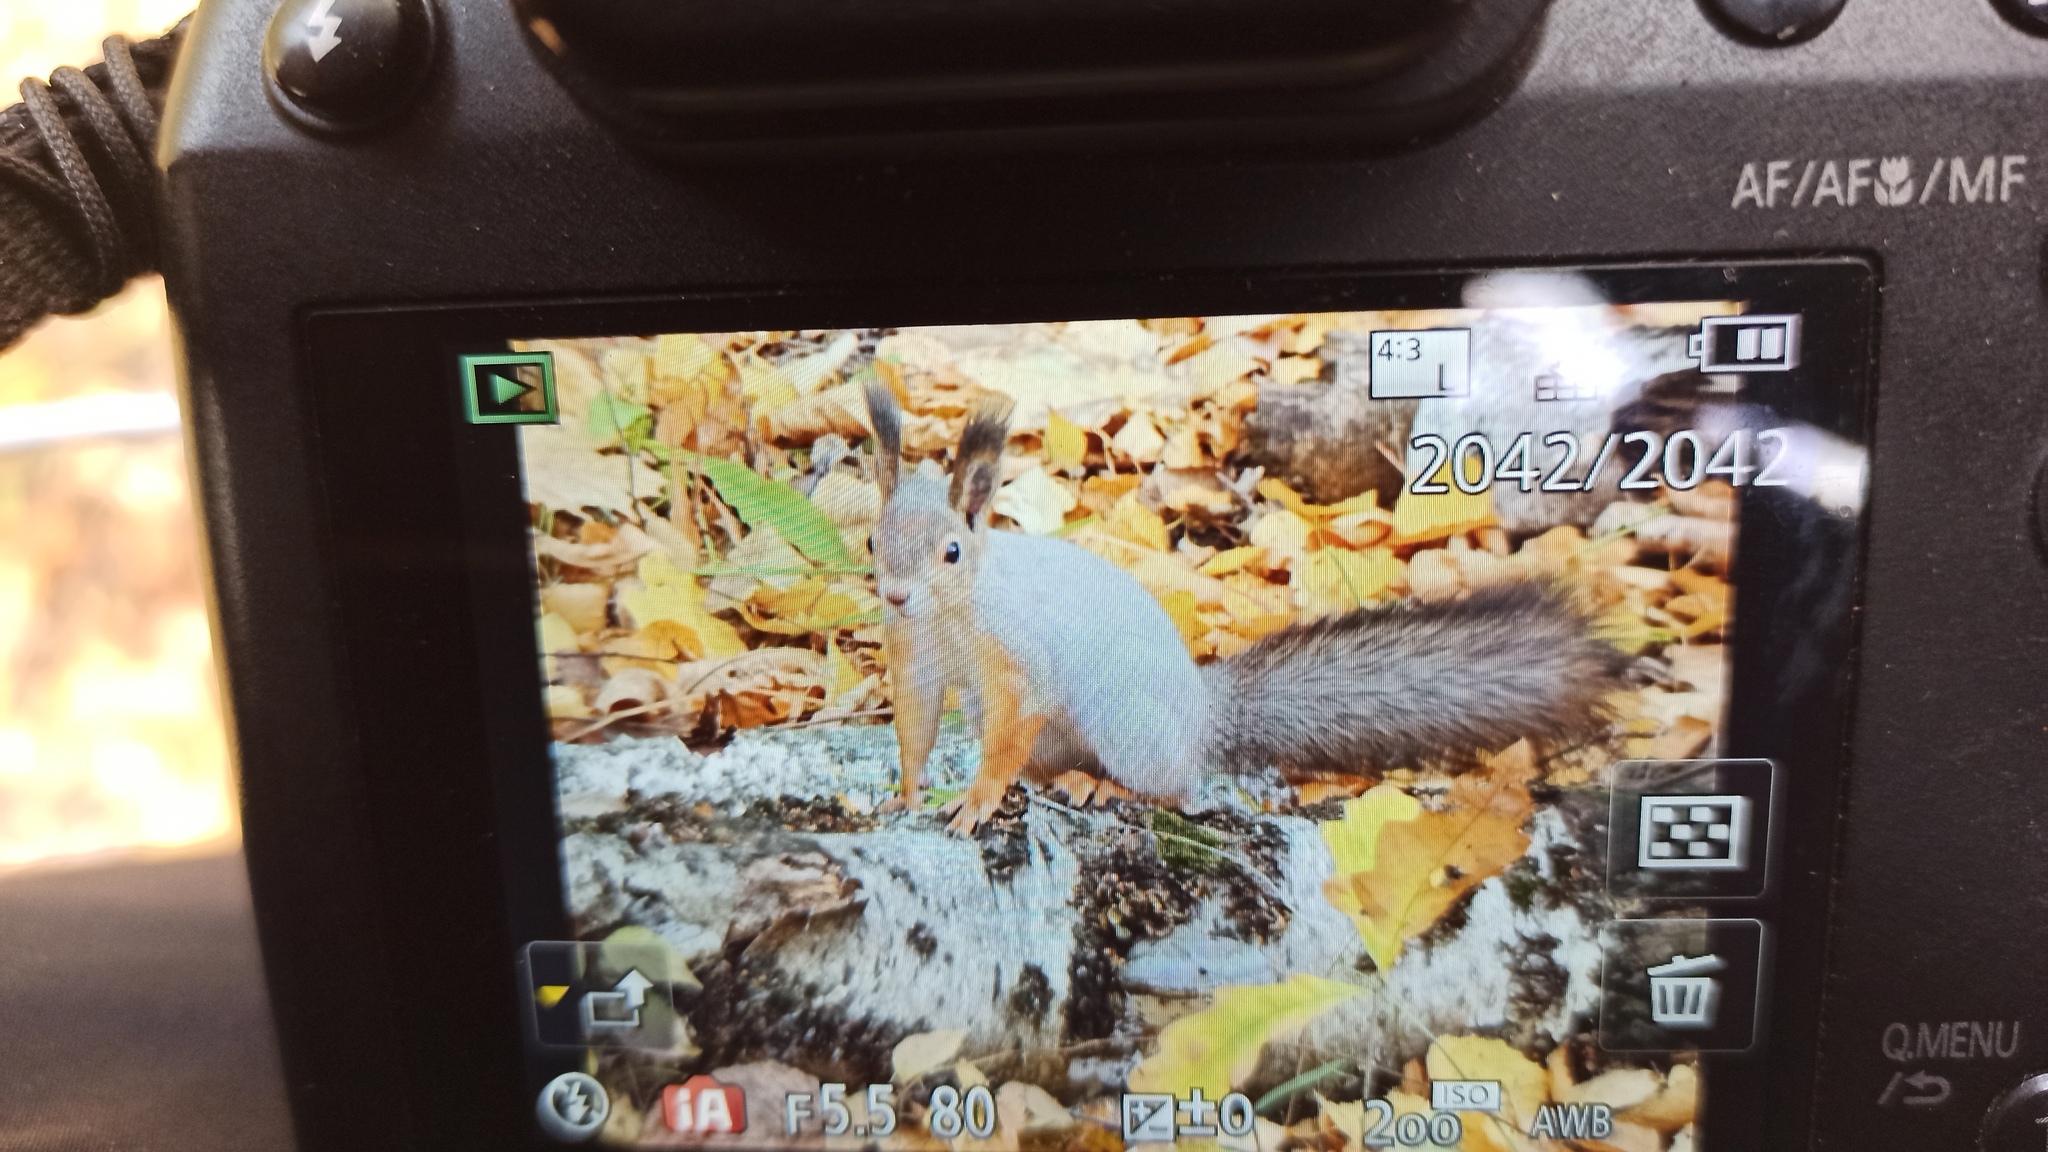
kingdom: Animalia
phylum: Chordata
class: Mammalia
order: Rodentia
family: Sciuridae
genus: Sciurus
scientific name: Sciurus vulgaris
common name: Eurasian red squirrel
